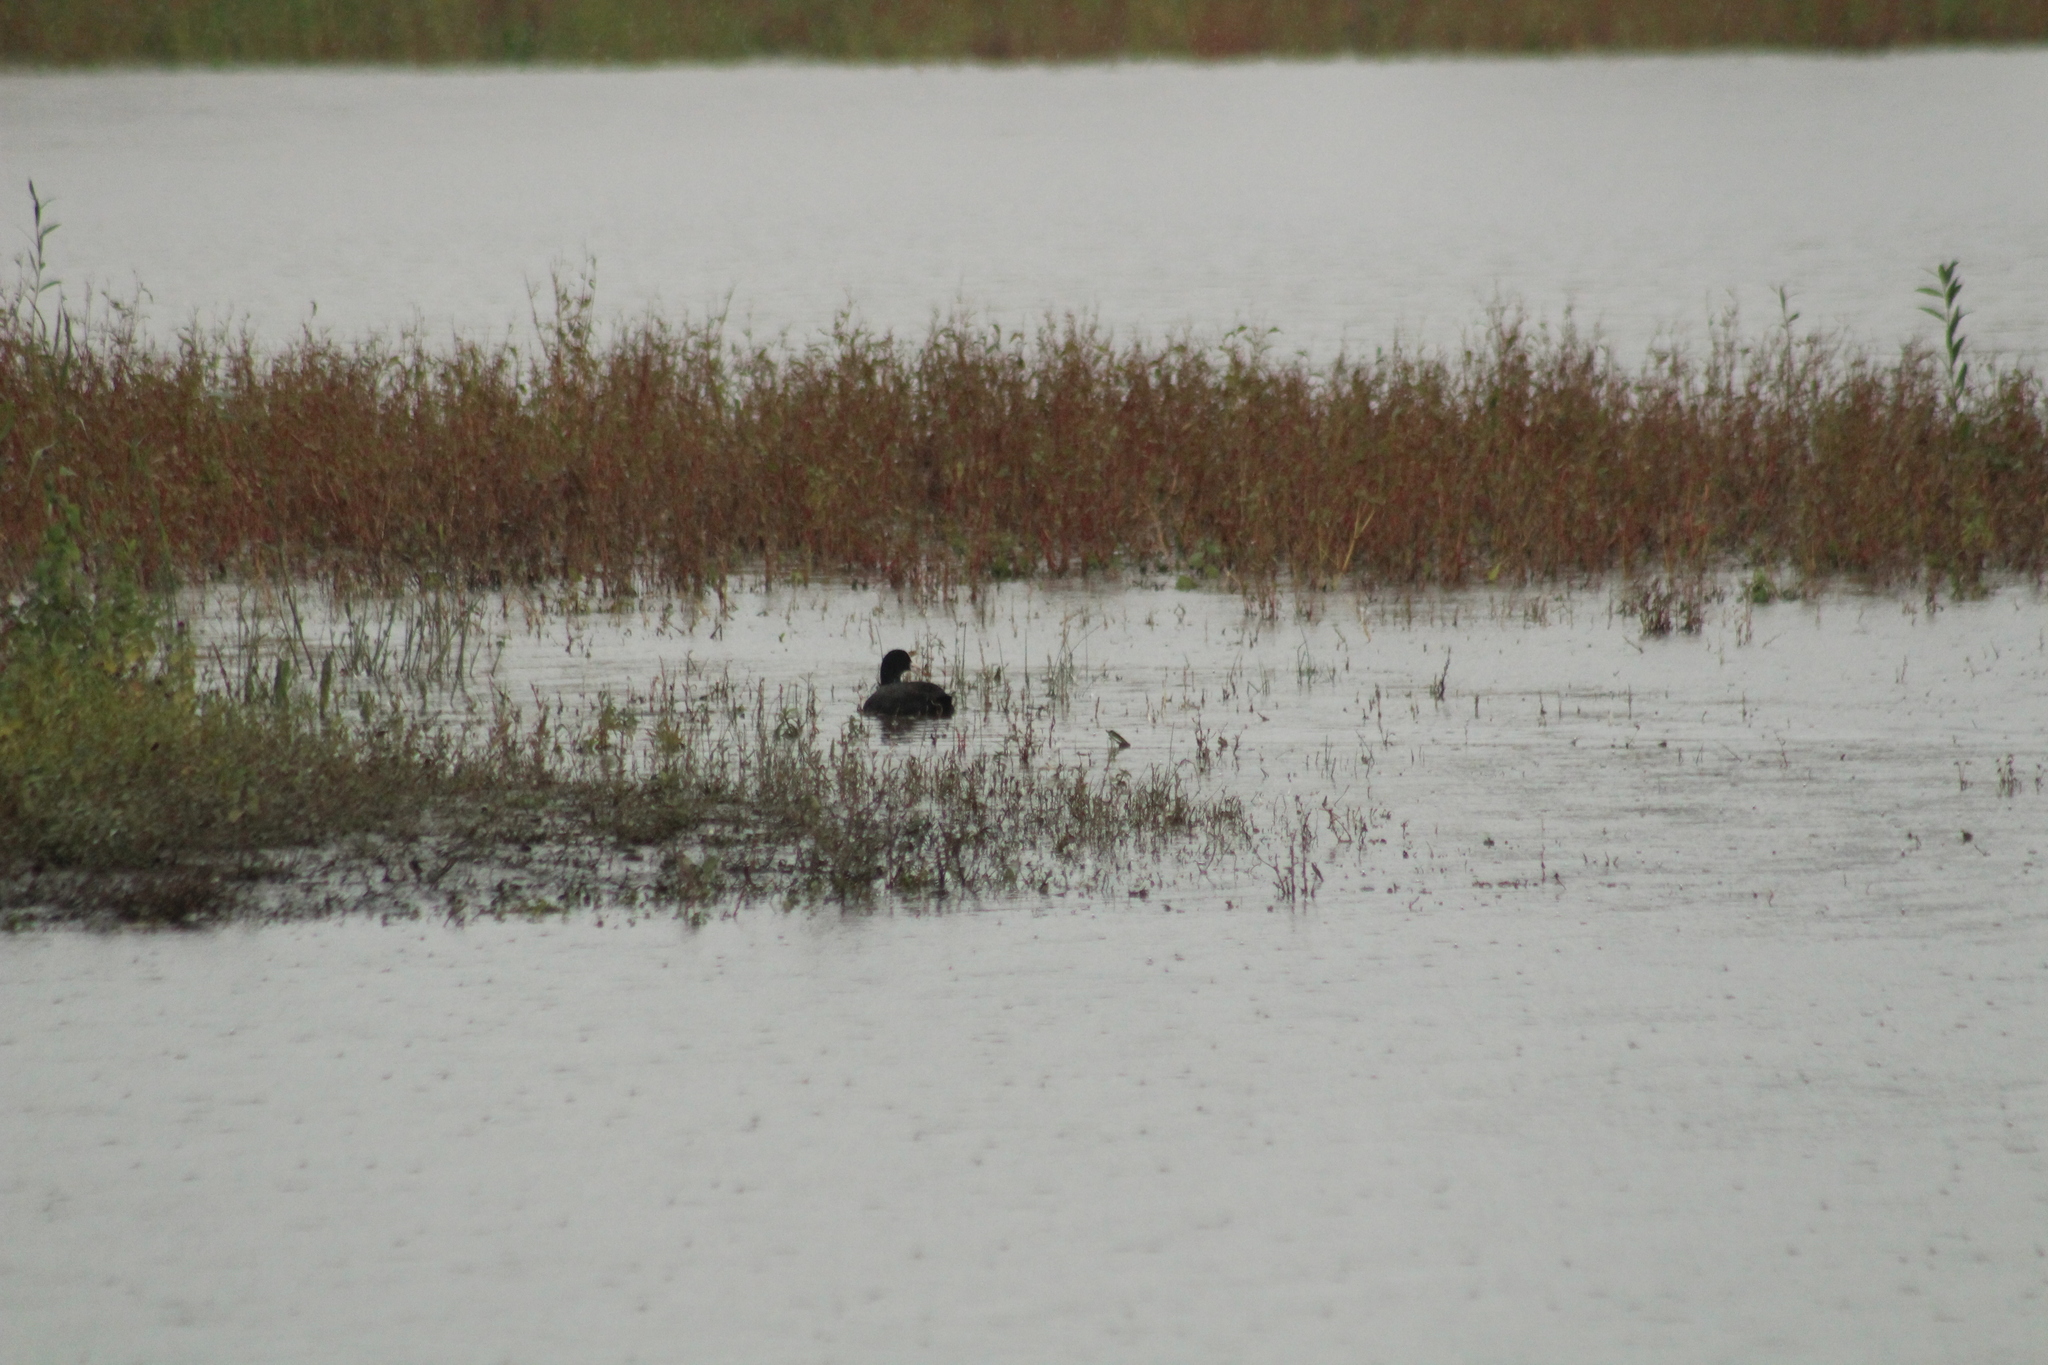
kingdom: Animalia
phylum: Chordata
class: Aves
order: Gruiformes
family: Rallidae
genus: Fulica
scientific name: Fulica atra
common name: Eurasian coot
